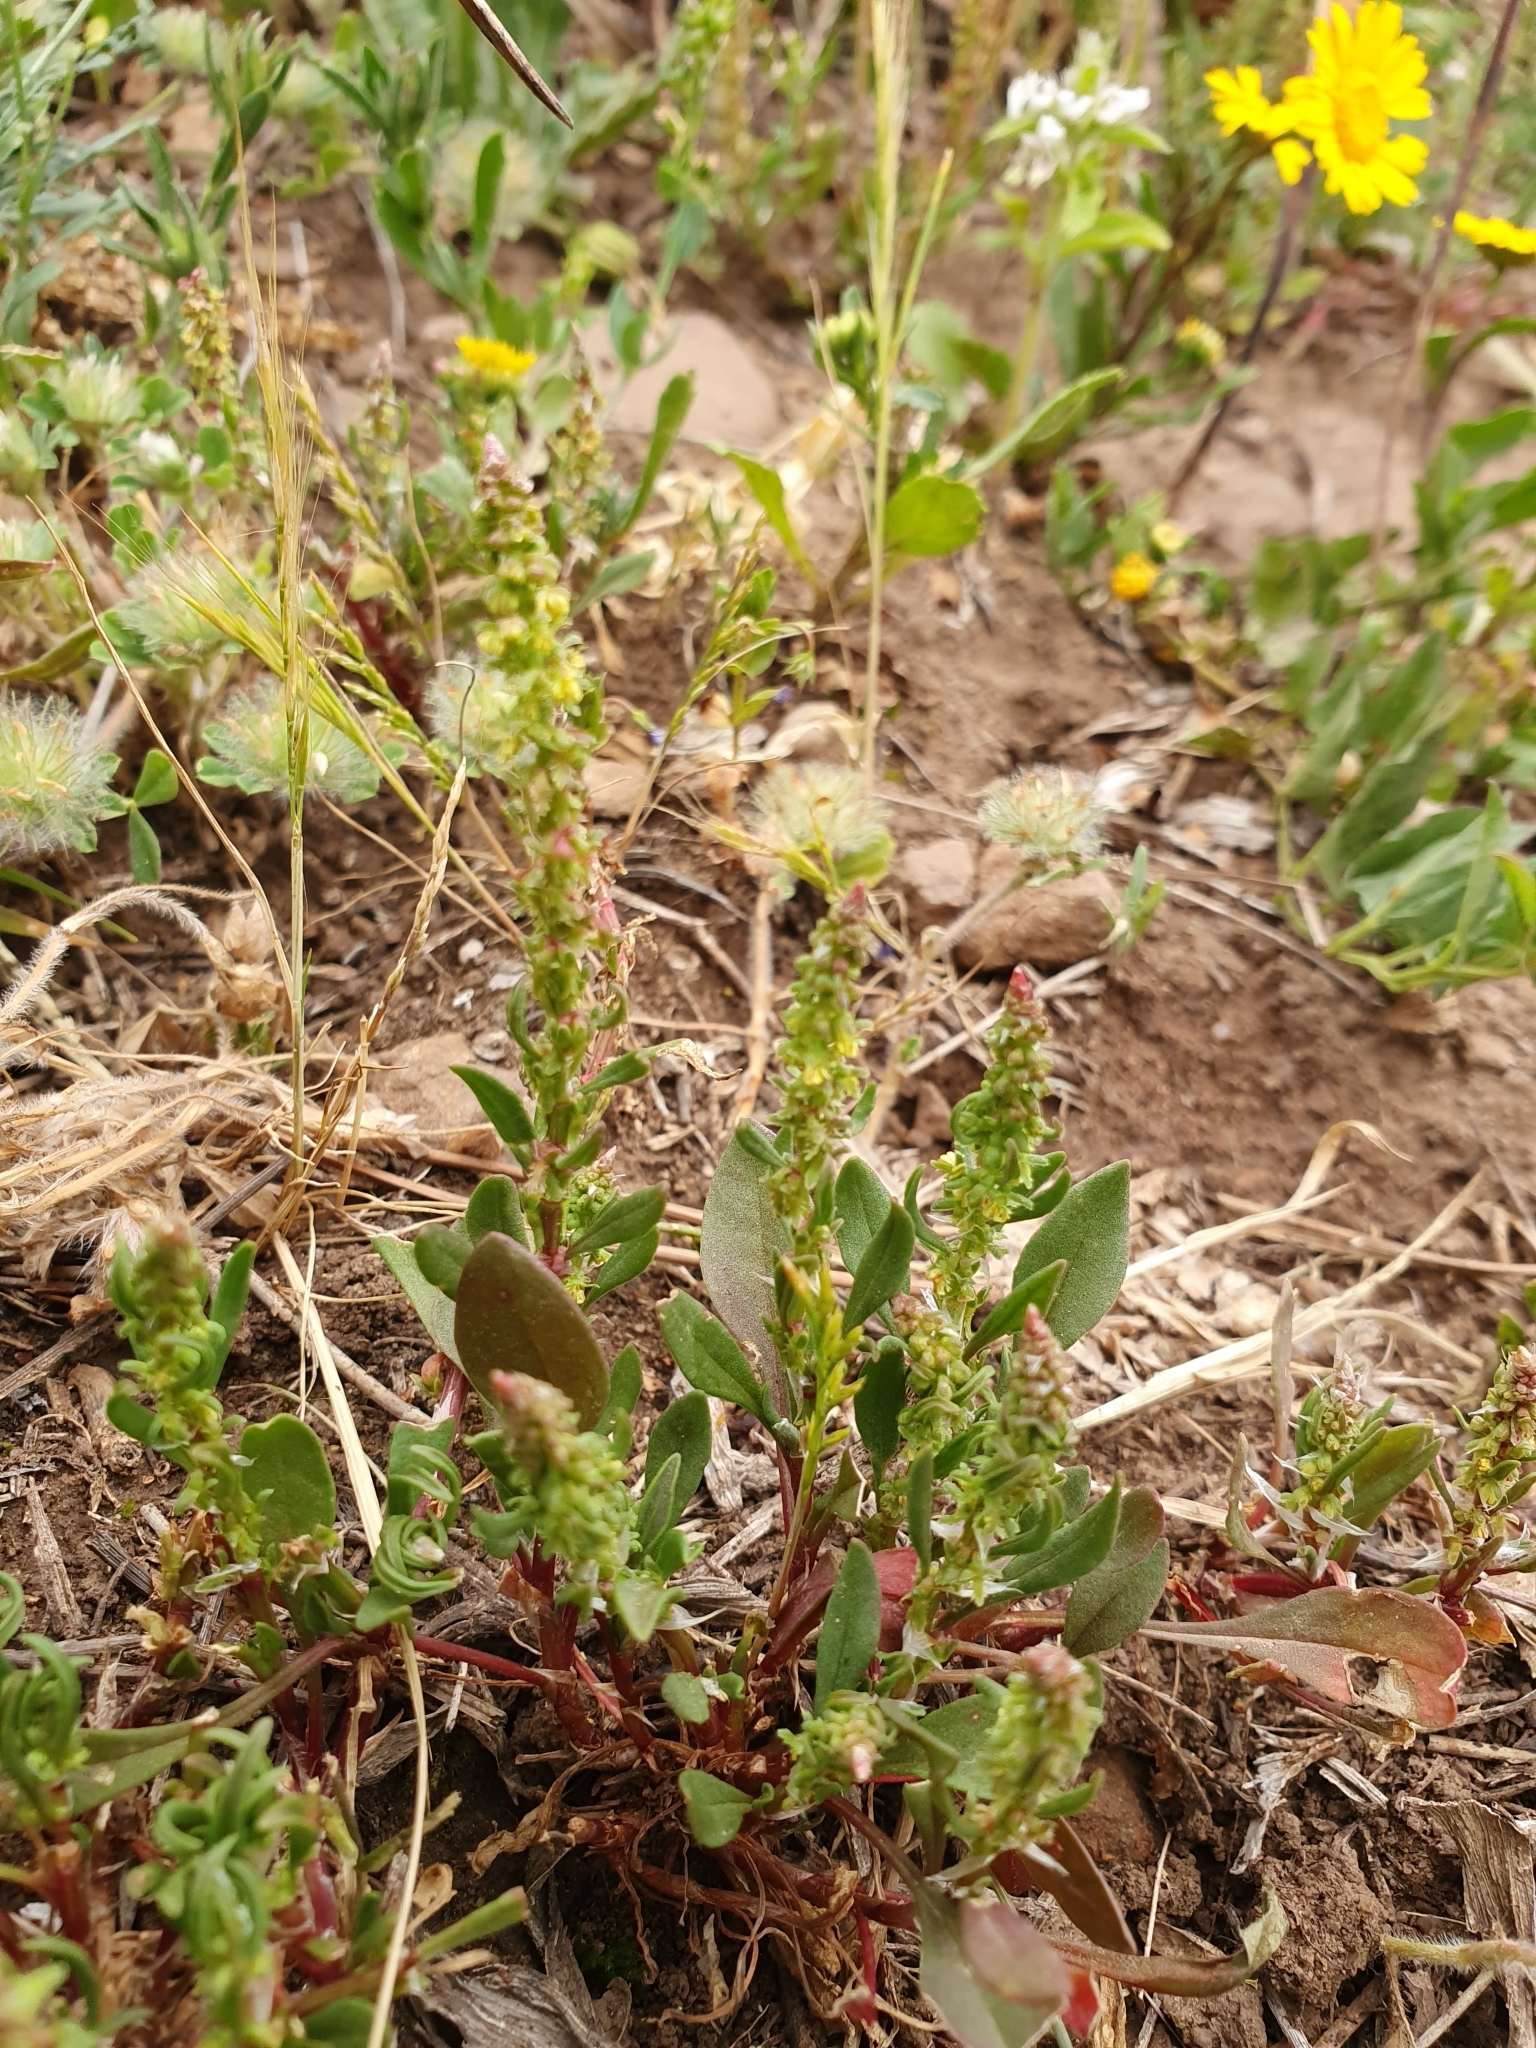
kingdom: Plantae
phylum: Tracheophyta
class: Magnoliopsida
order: Caryophyllales
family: Polygonaceae
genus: Rumex
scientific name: Rumex bucephalophorus
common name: Red dock
